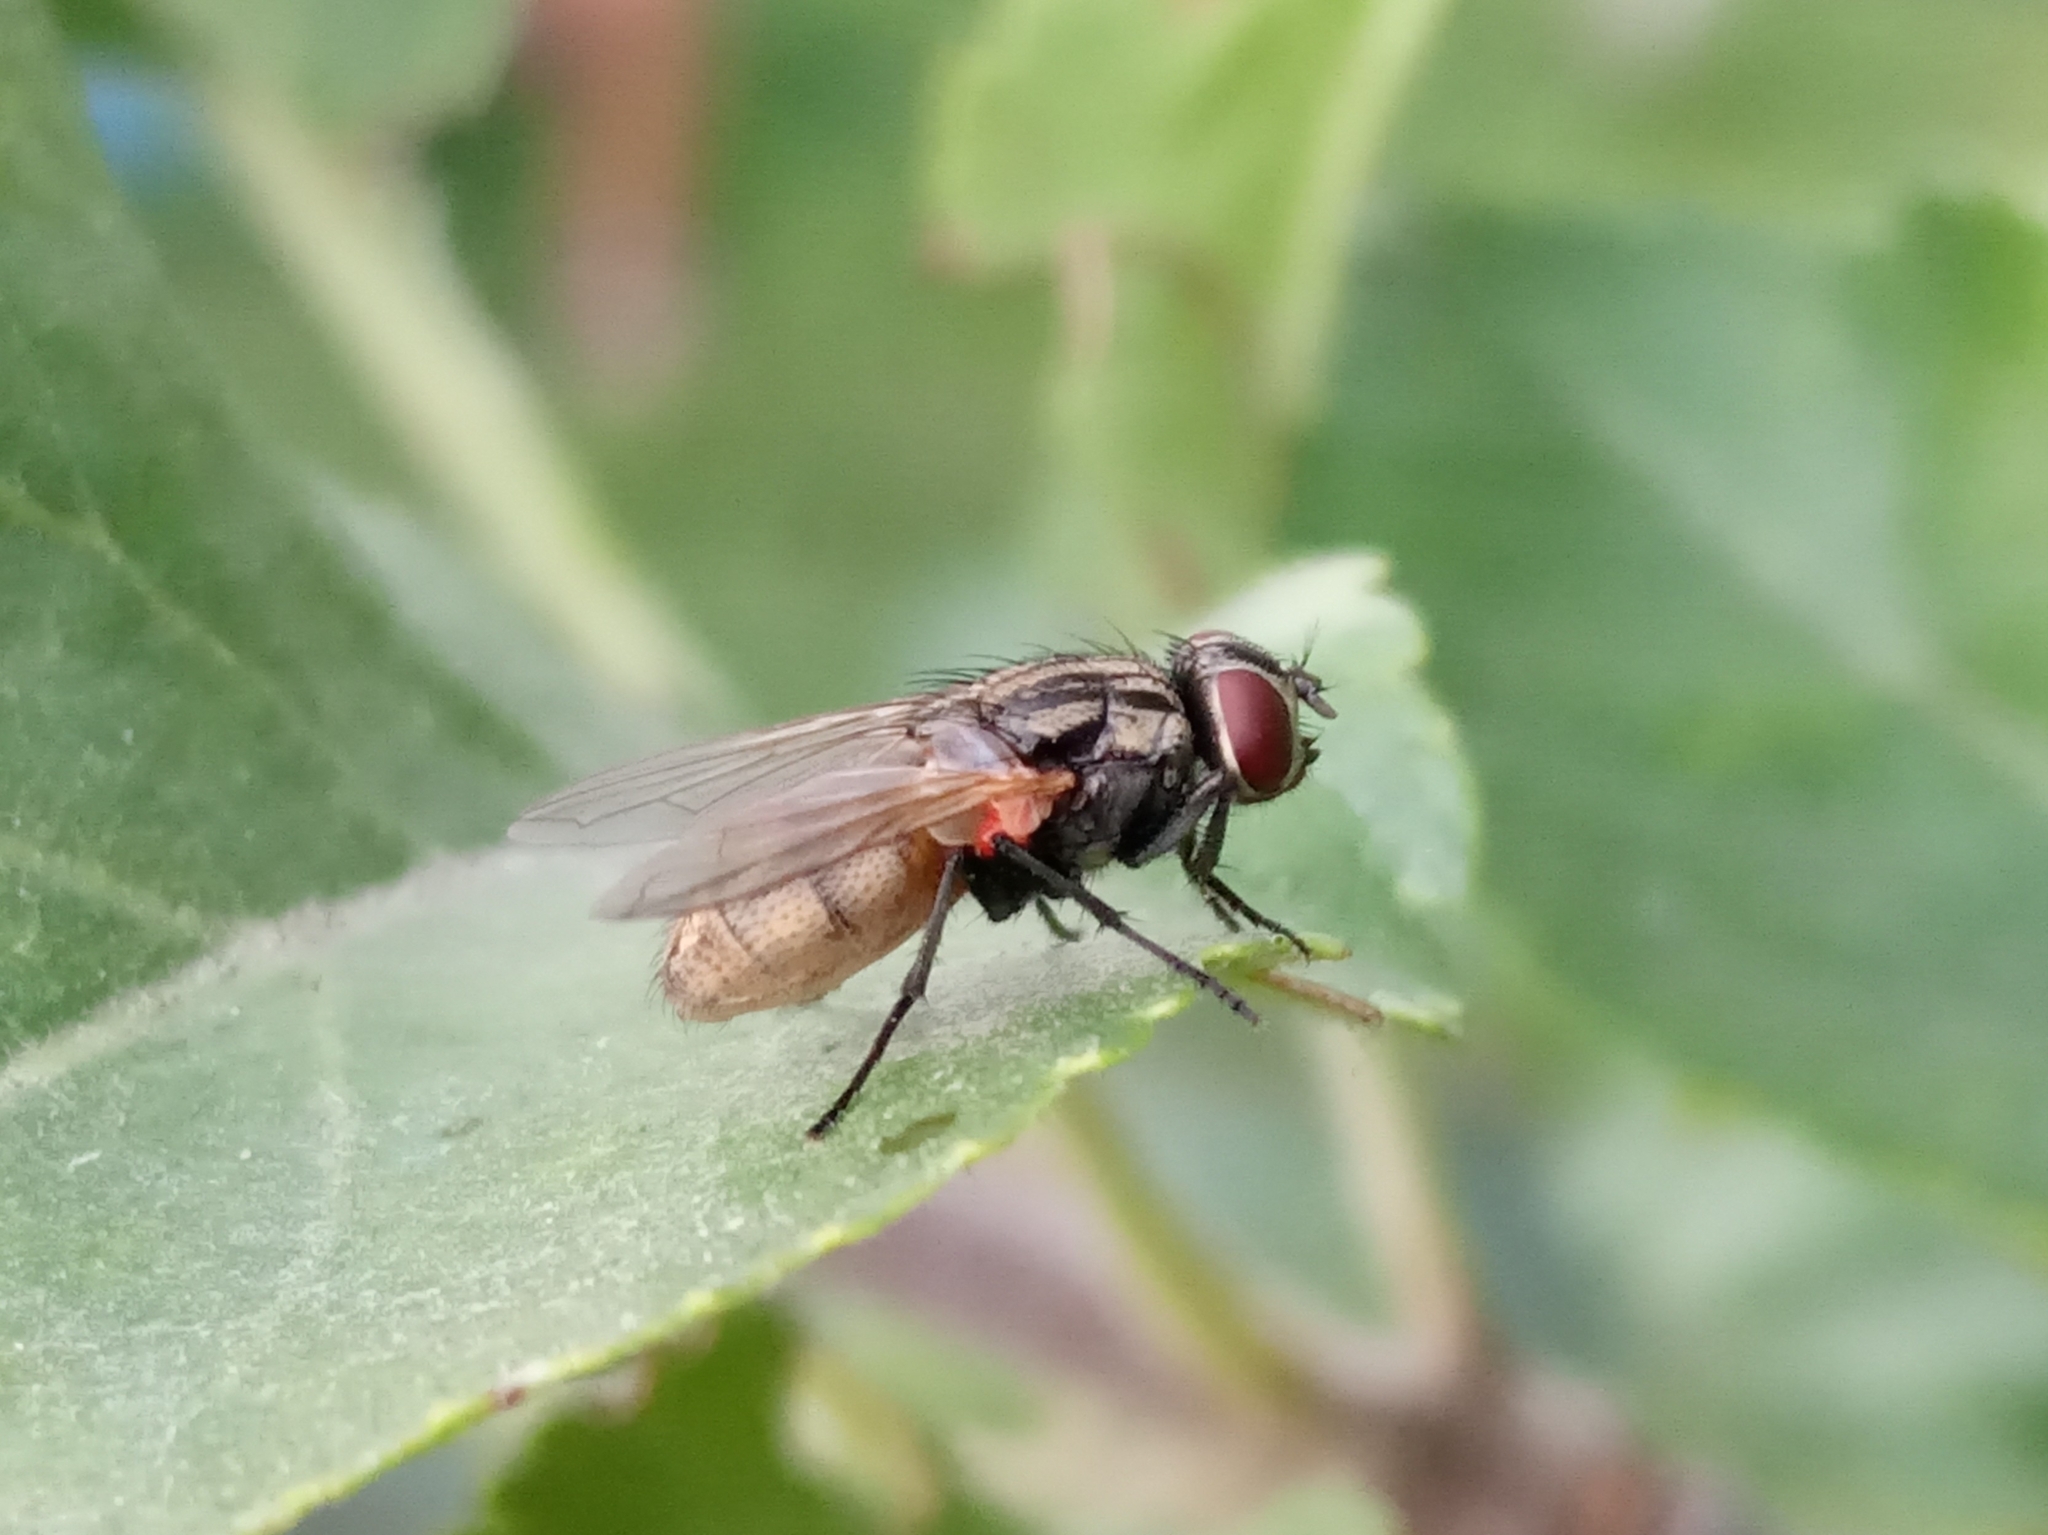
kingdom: Animalia
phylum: Arthropoda
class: Insecta
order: Diptera
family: Muscidae
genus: Musca
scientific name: Musca
